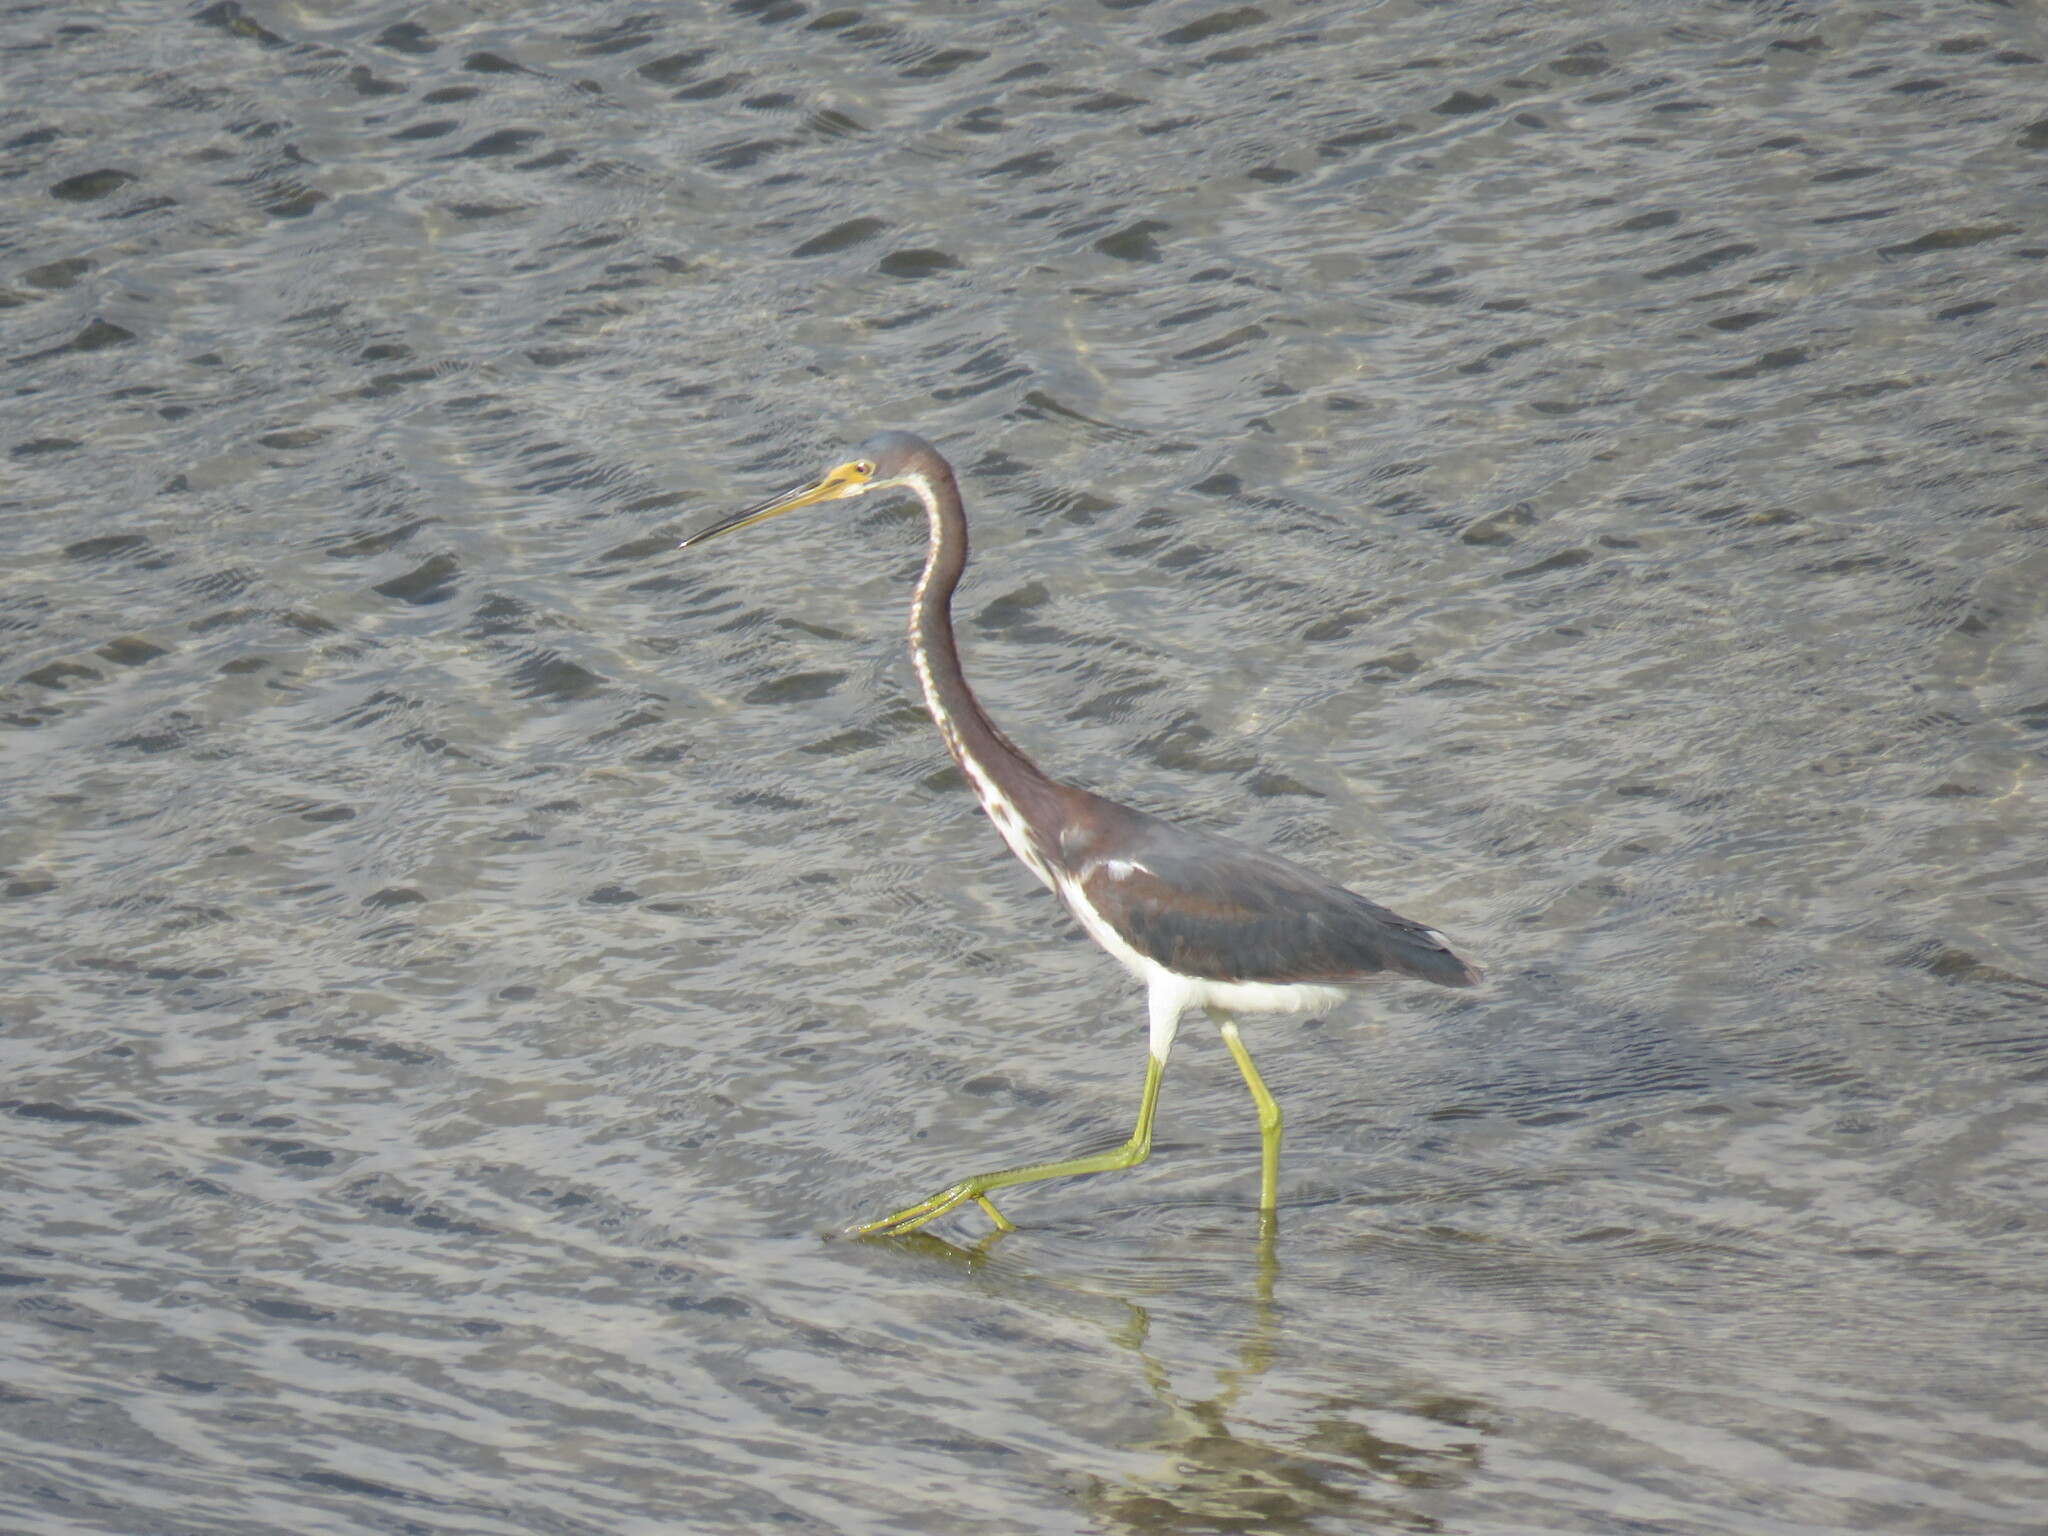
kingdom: Animalia
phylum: Chordata
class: Aves
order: Pelecaniformes
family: Ardeidae
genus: Egretta
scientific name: Egretta tricolor
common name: Tricolored heron
